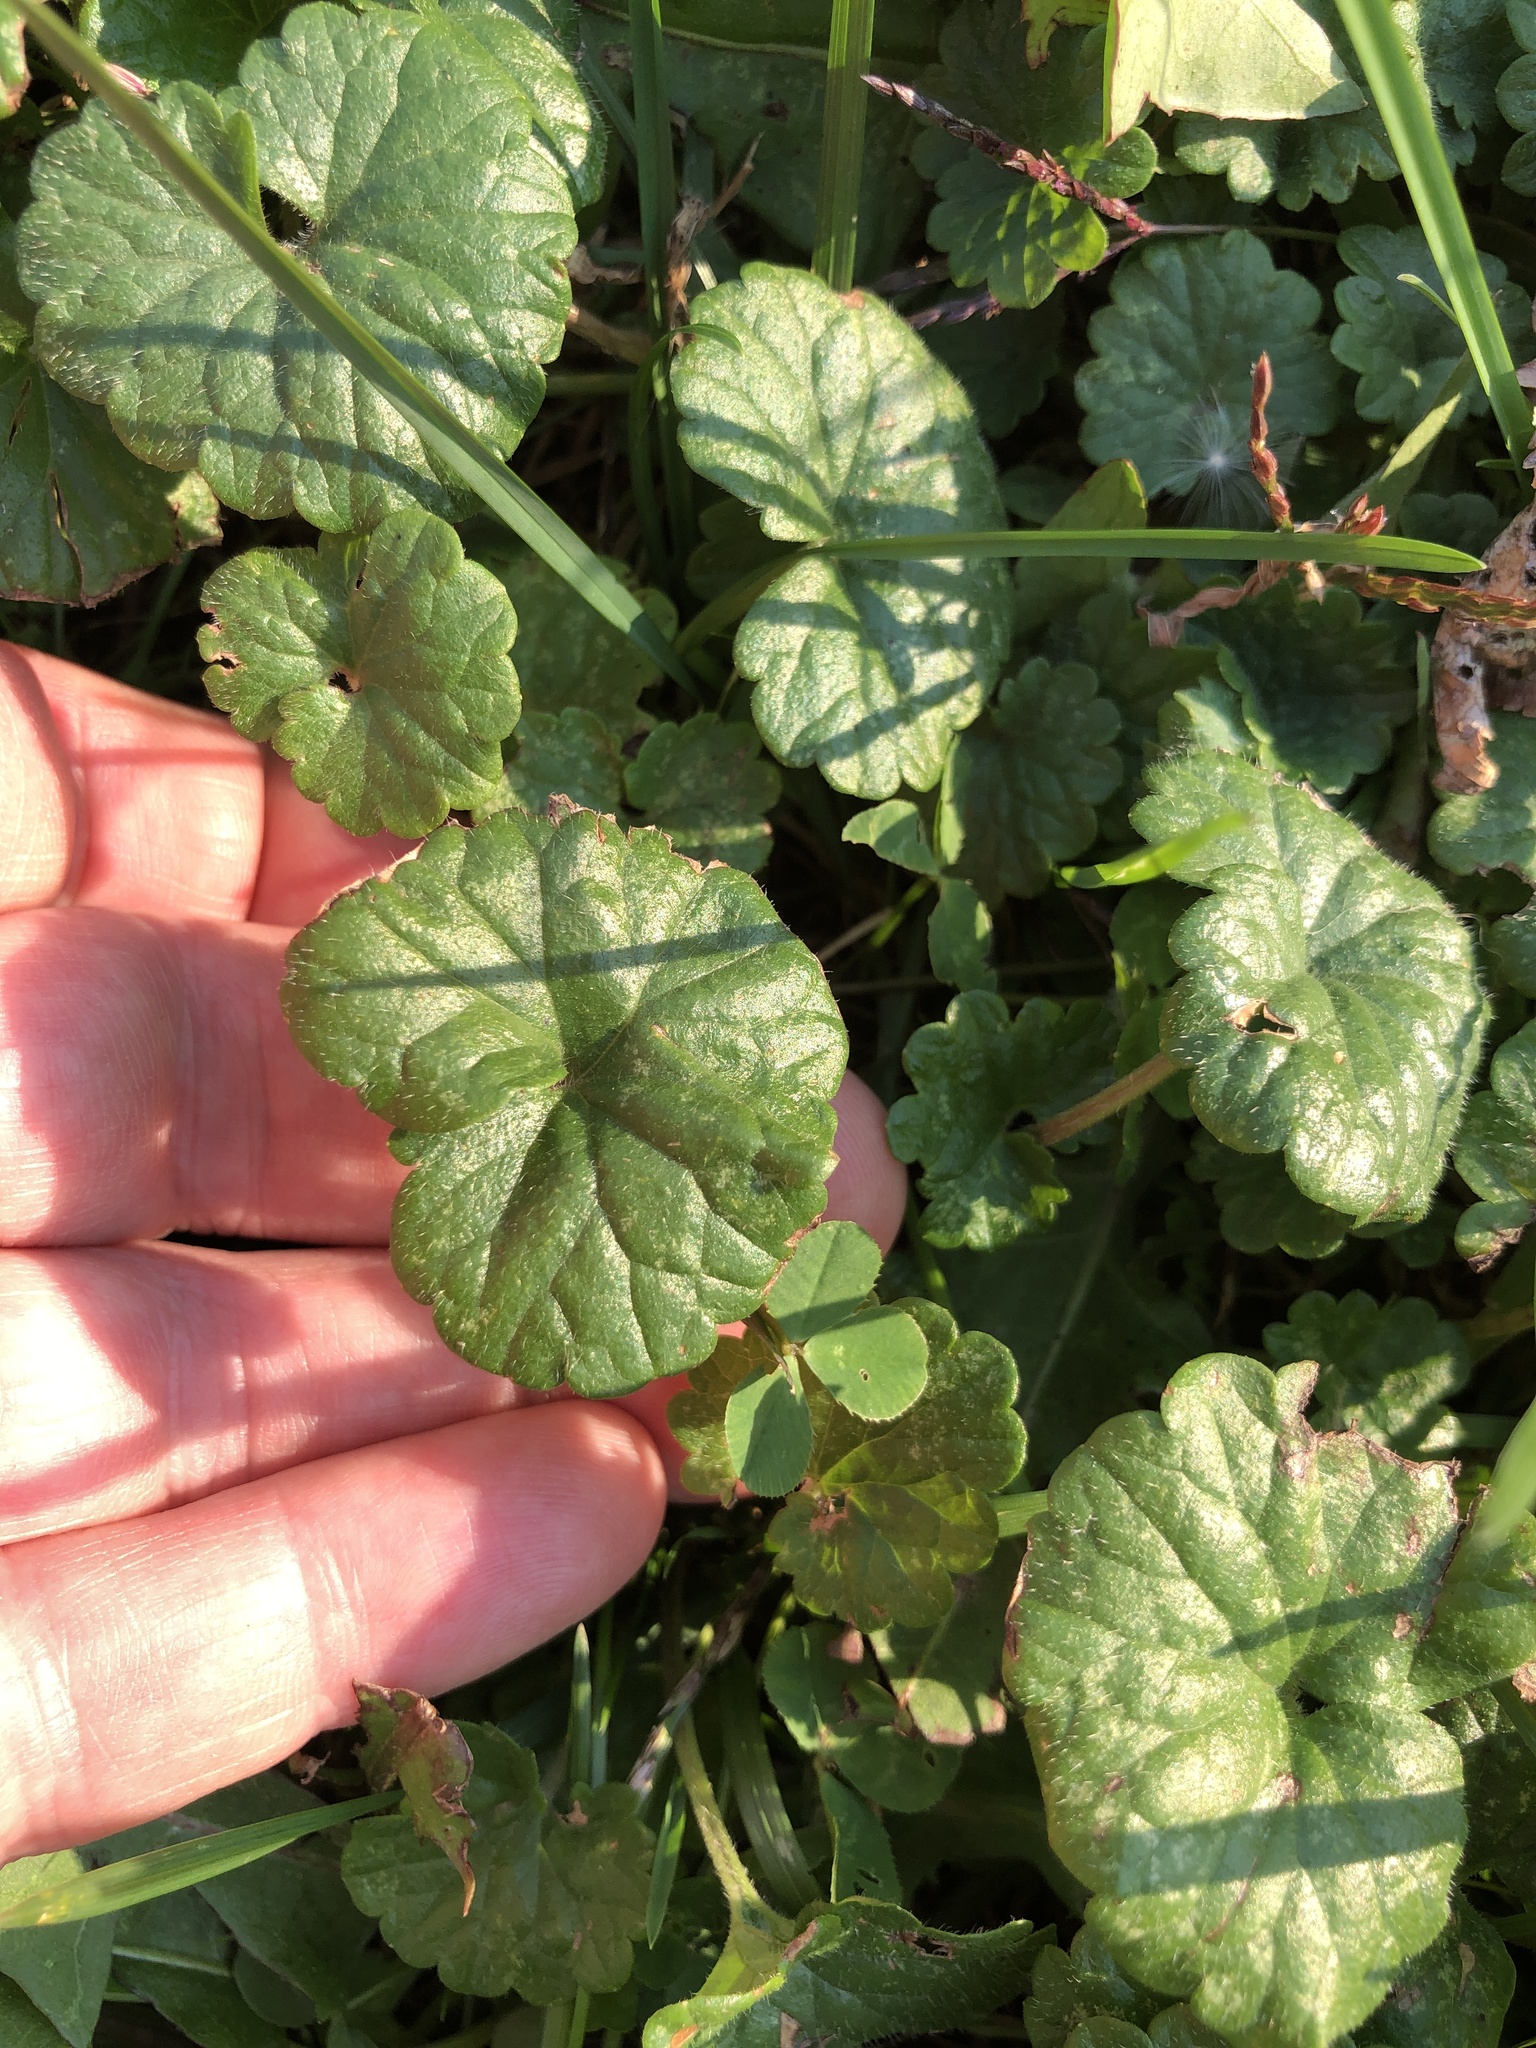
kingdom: Plantae
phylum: Tracheophyta
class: Magnoliopsida
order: Lamiales
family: Lamiaceae
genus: Glechoma
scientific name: Glechoma hederacea
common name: Ground ivy
